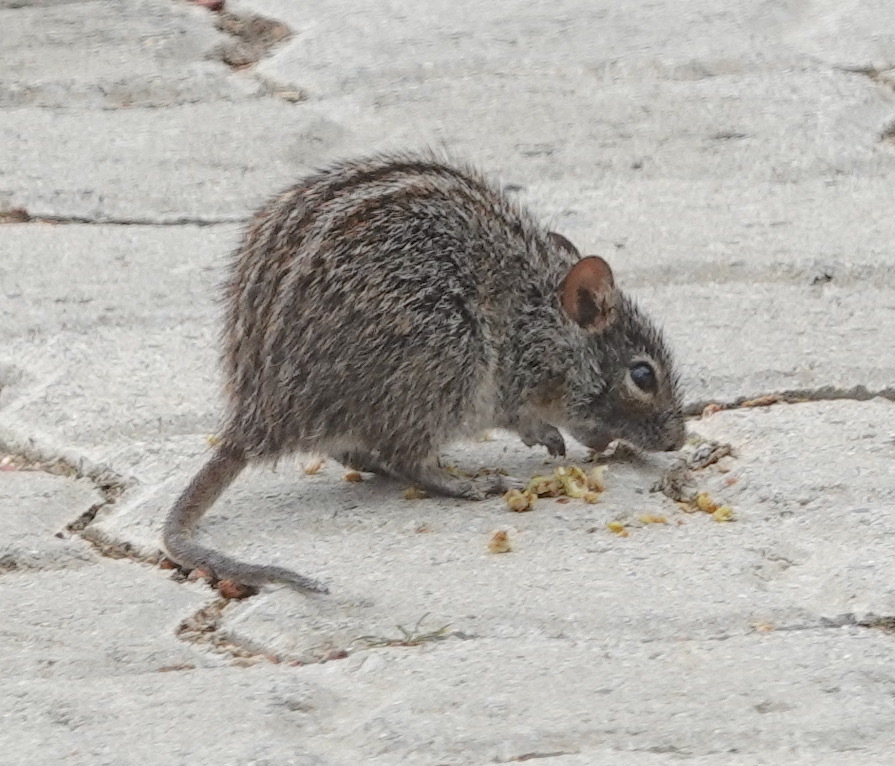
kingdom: Animalia
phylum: Chordata
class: Mammalia
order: Rodentia
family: Muridae
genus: Rhabdomys
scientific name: Rhabdomys pumilio
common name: Xeric four-striped grass rat
